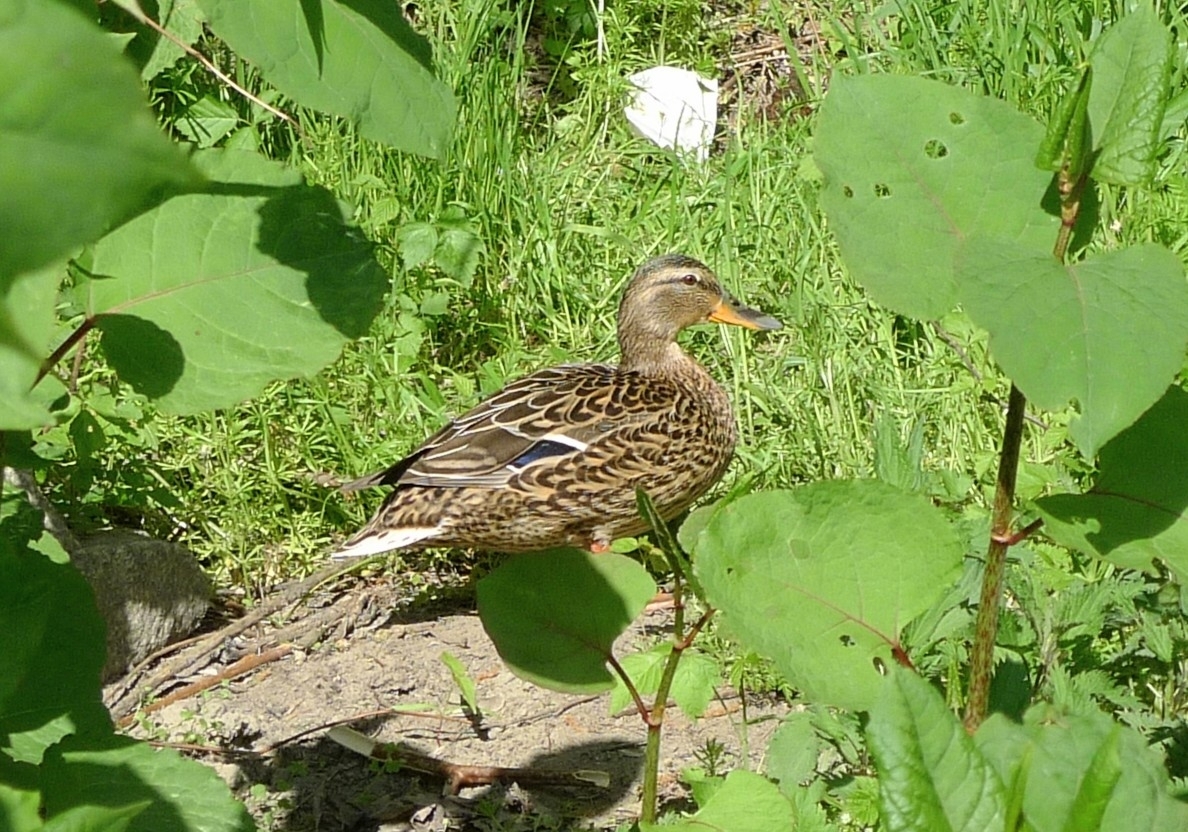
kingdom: Animalia
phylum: Chordata
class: Aves
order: Anseriformes
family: Anatidae
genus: Anas
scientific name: Anas platyrhynchos
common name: Mallard
